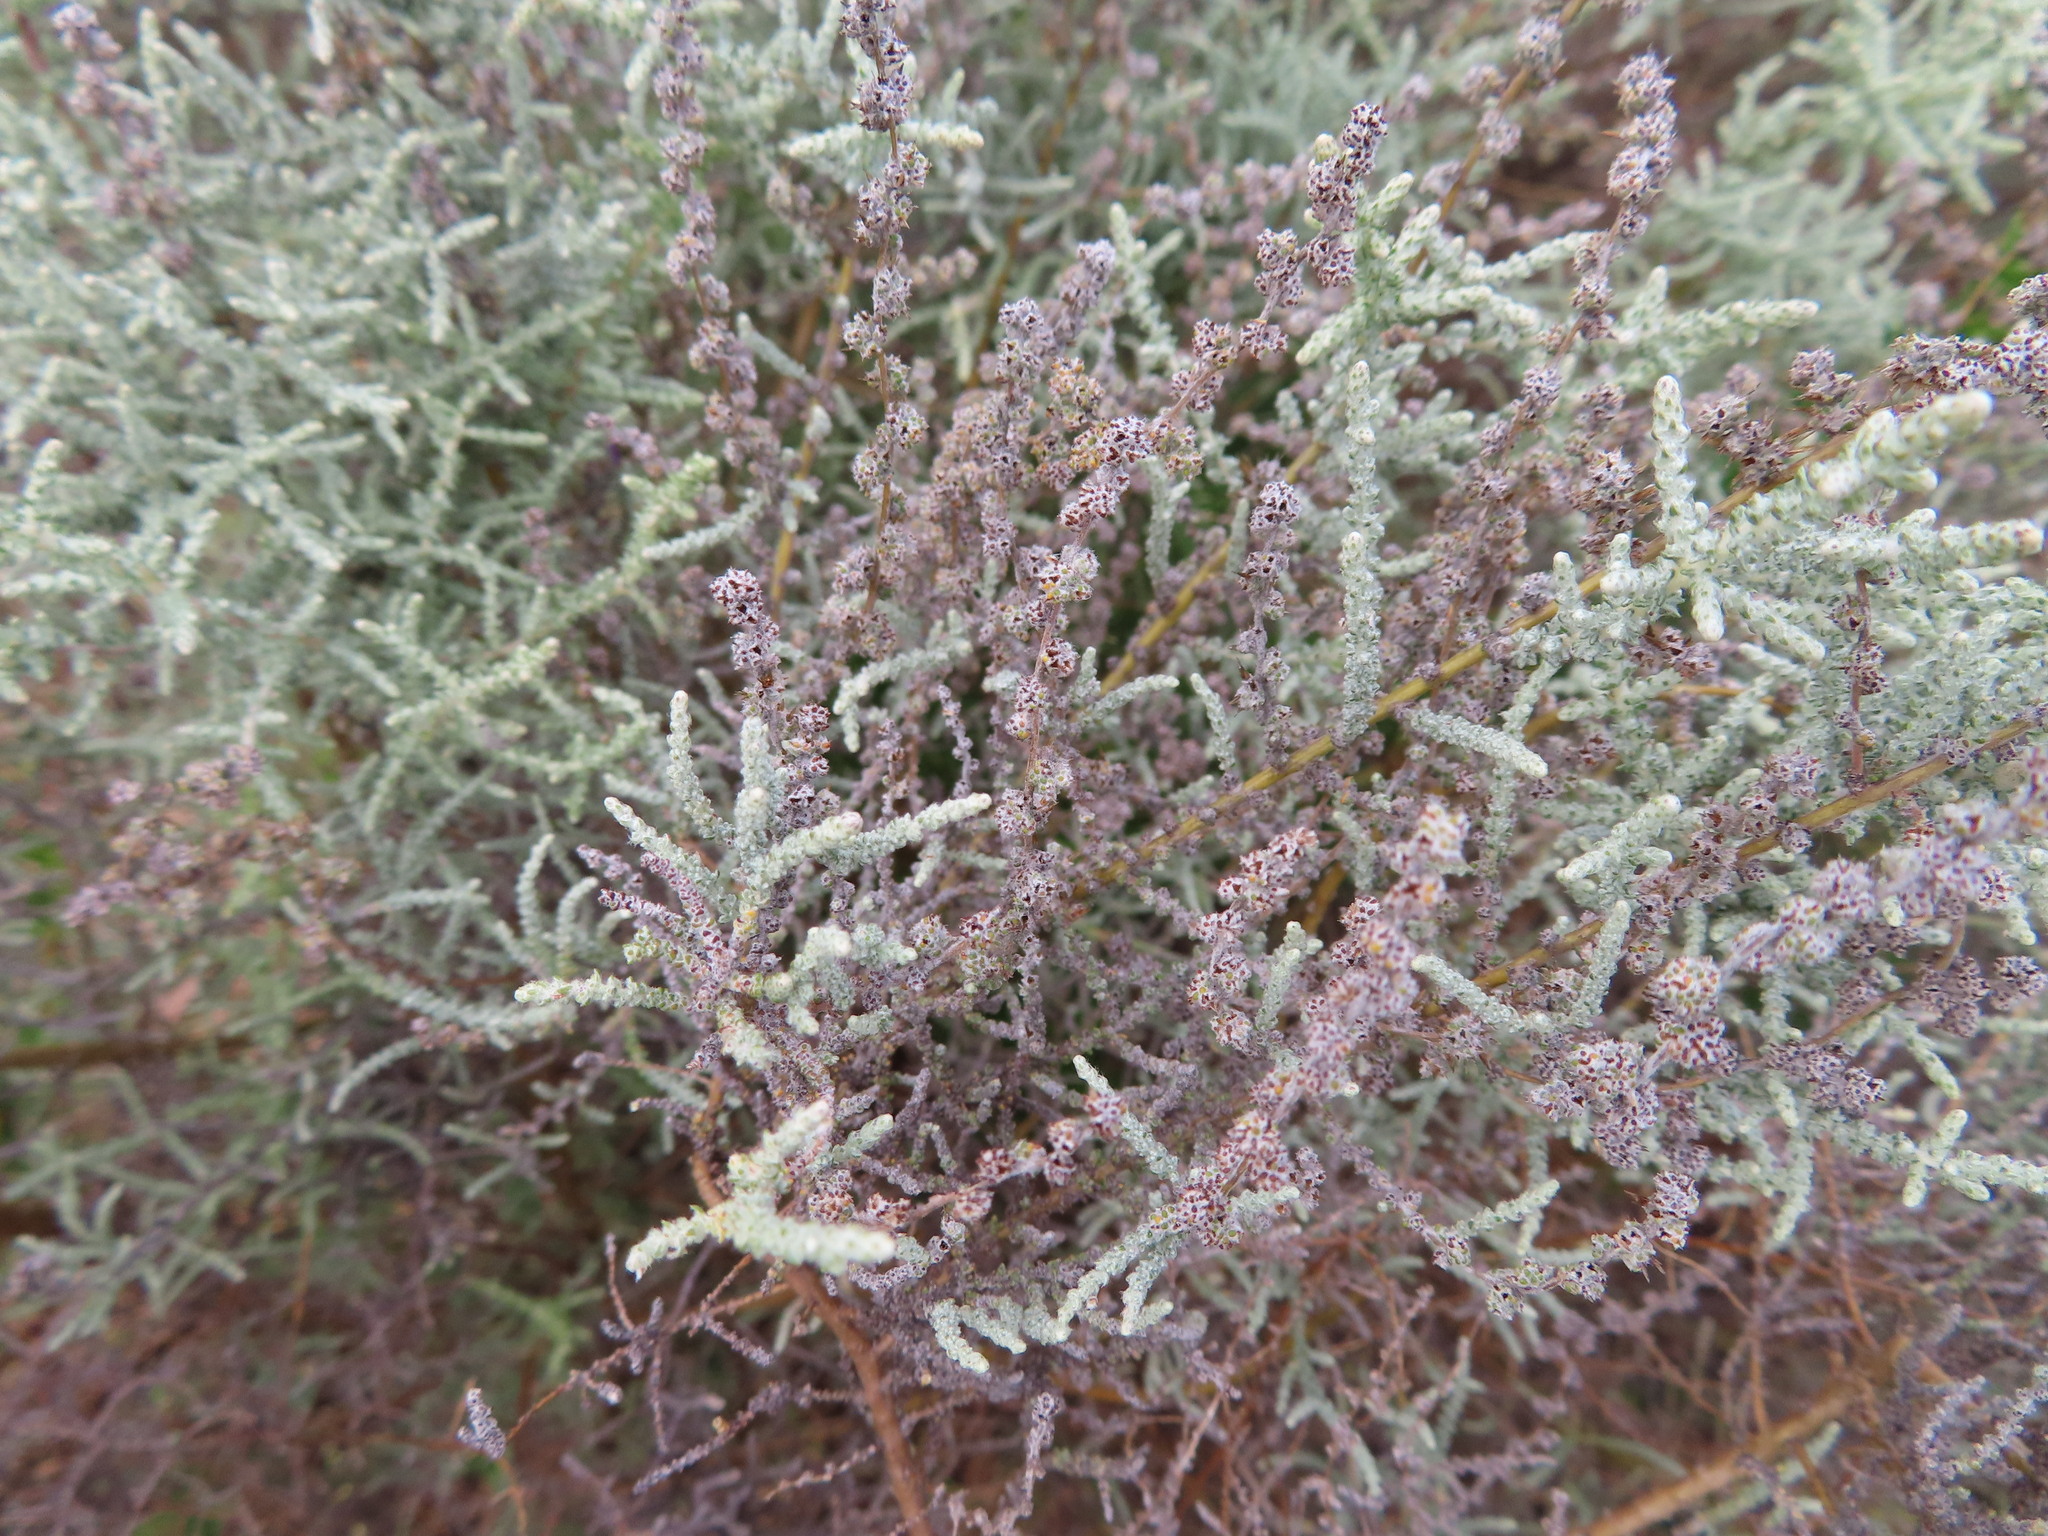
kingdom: Plantae
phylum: Tracheophyta
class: Magnoliopsida
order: Asterales
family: Asteraceae
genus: Seriphium
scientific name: Seriphium plumosum
